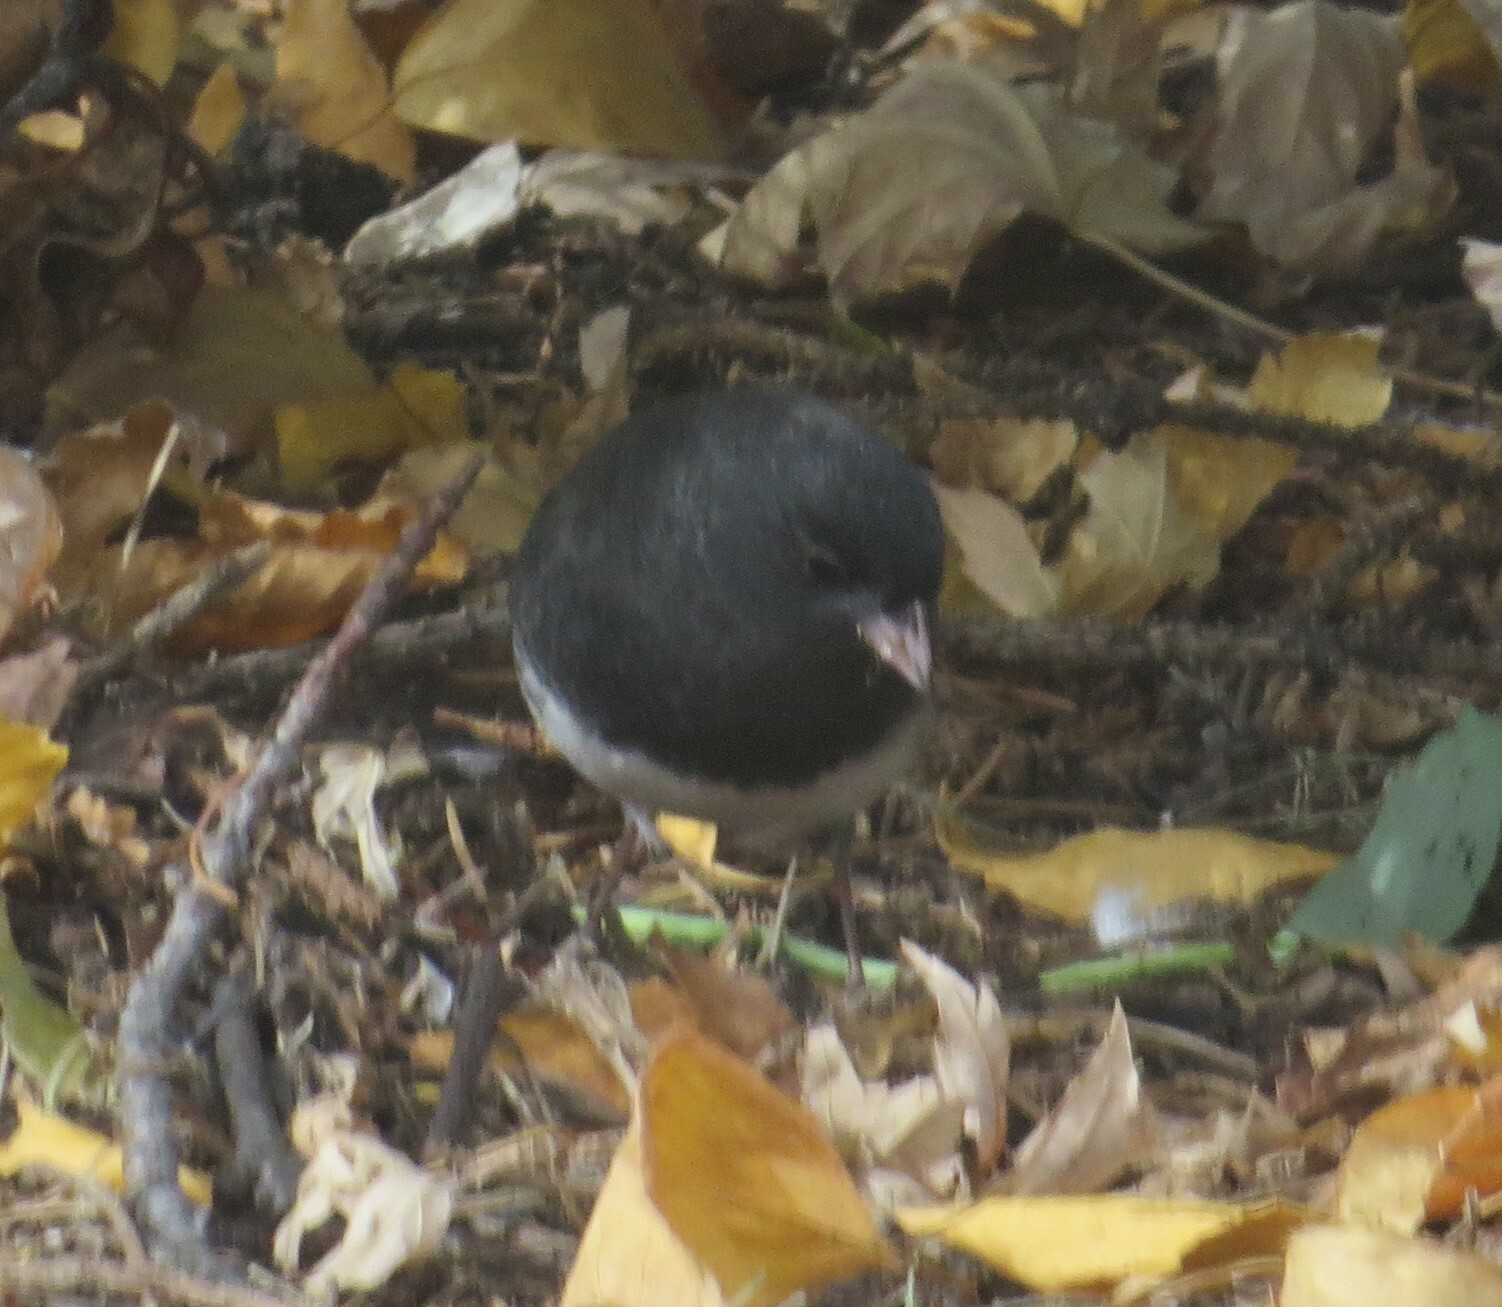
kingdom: Animalia
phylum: Chordata
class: Aves
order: Passeriformes
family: Passerellidae
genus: Junco
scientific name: Junco hyemalis
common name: Dark-eyed junco
